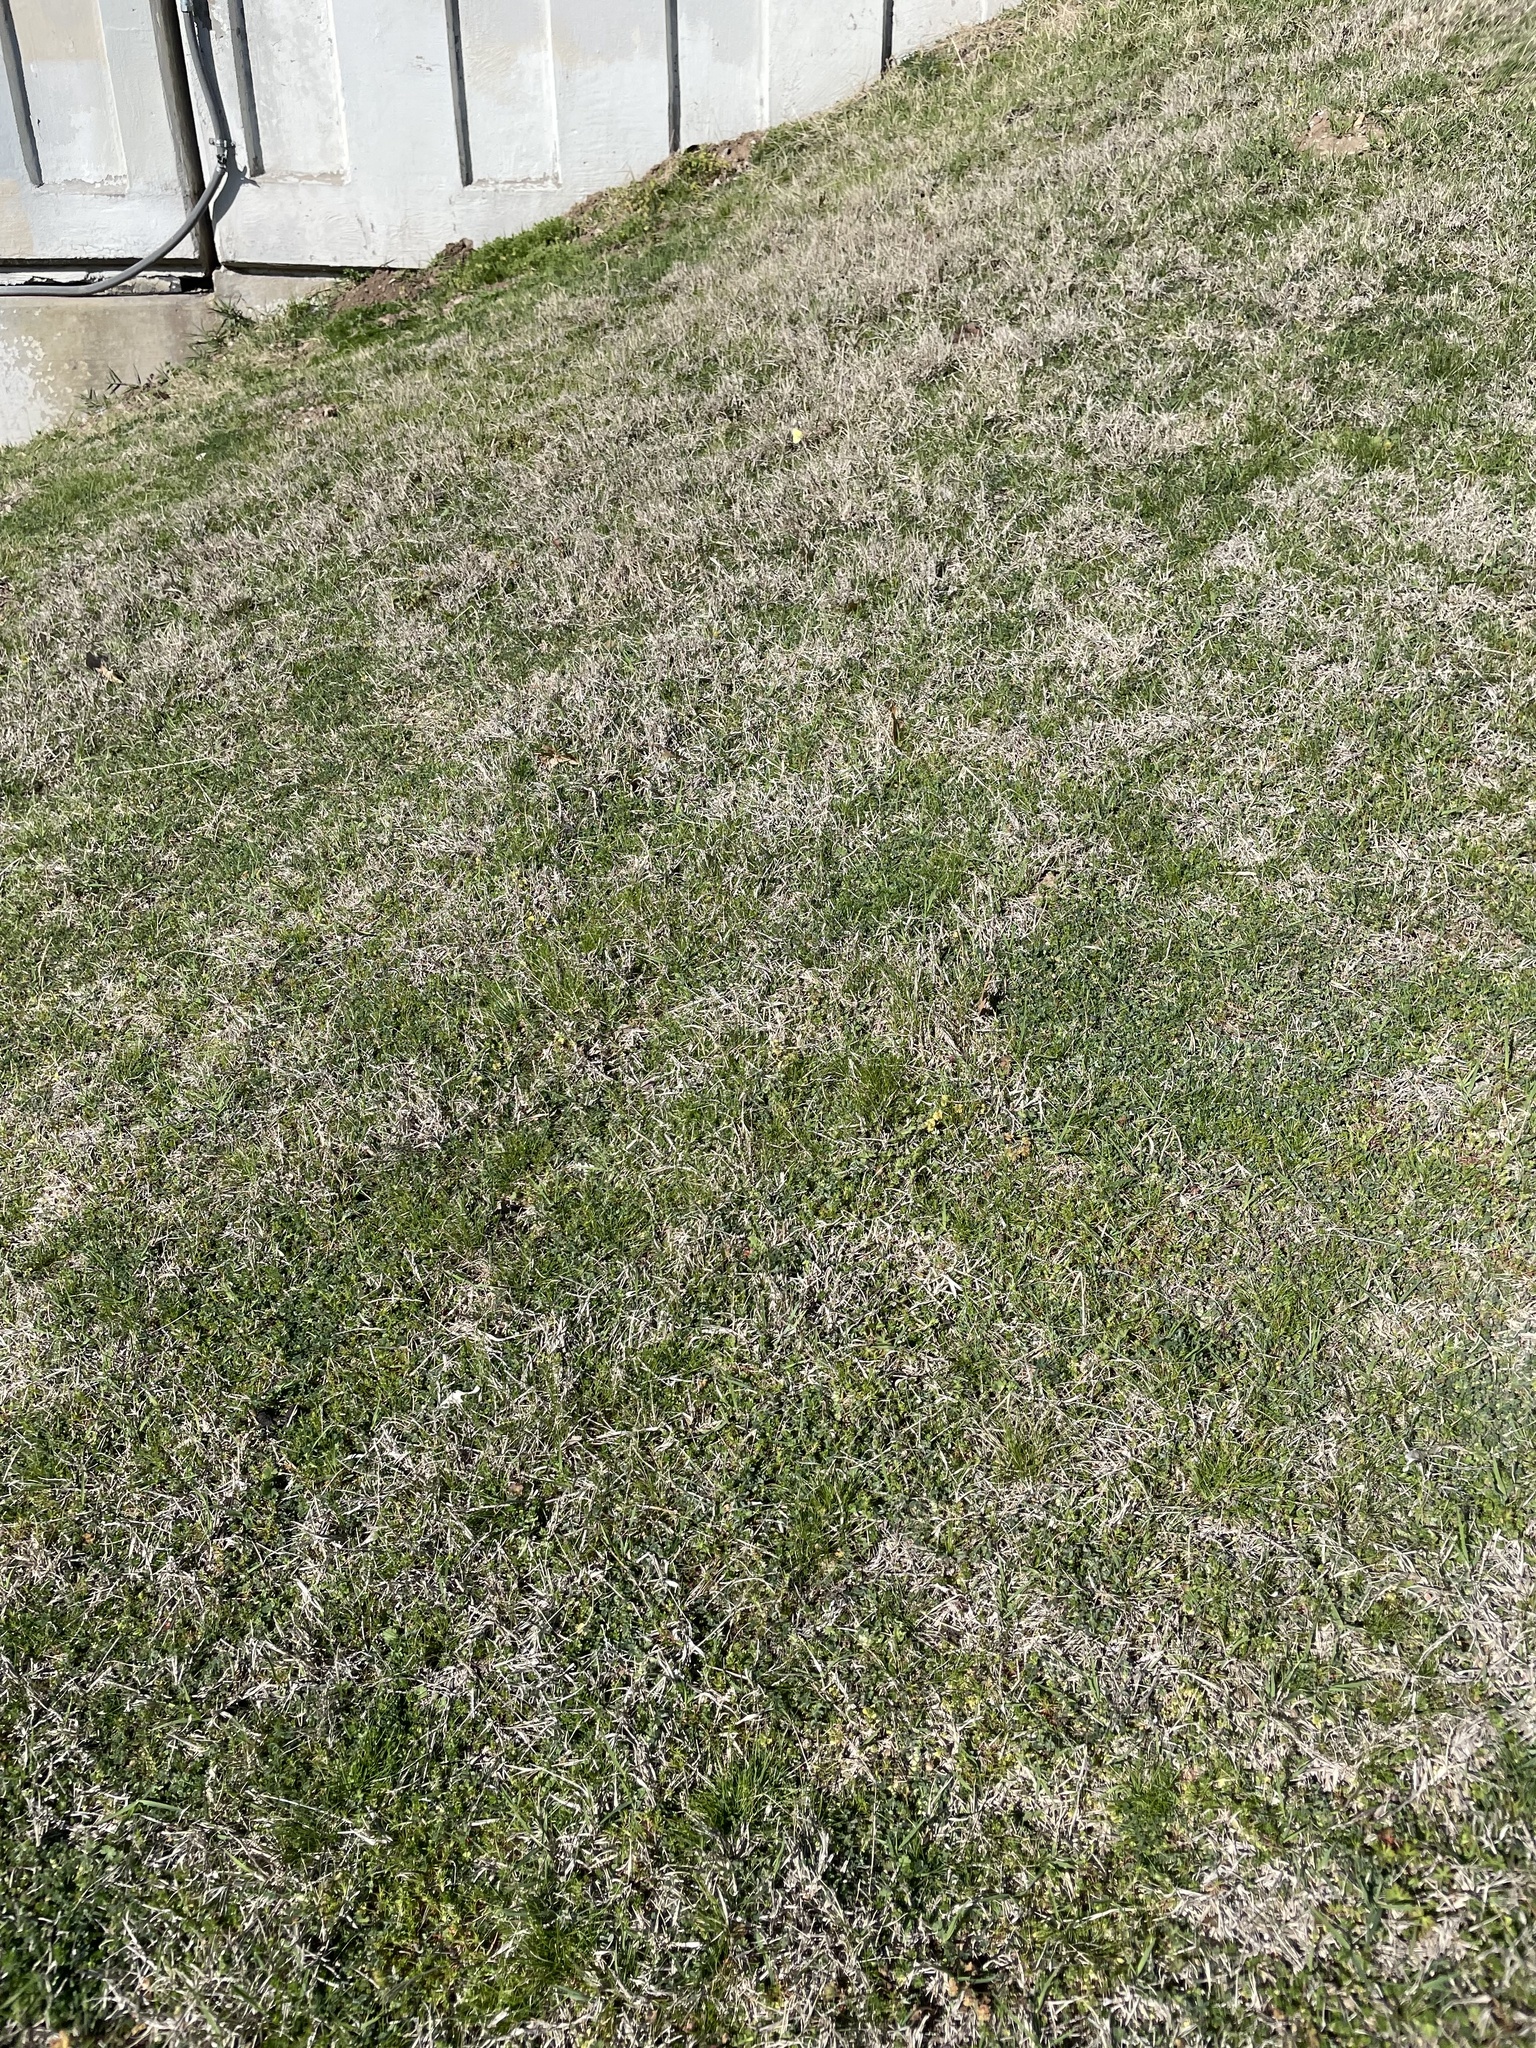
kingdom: Animalia
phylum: Arthropoda
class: Insecta
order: Lepidoptera
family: Pieridae
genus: Colias
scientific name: Colias eurytheme
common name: Alfalfa butterfly
